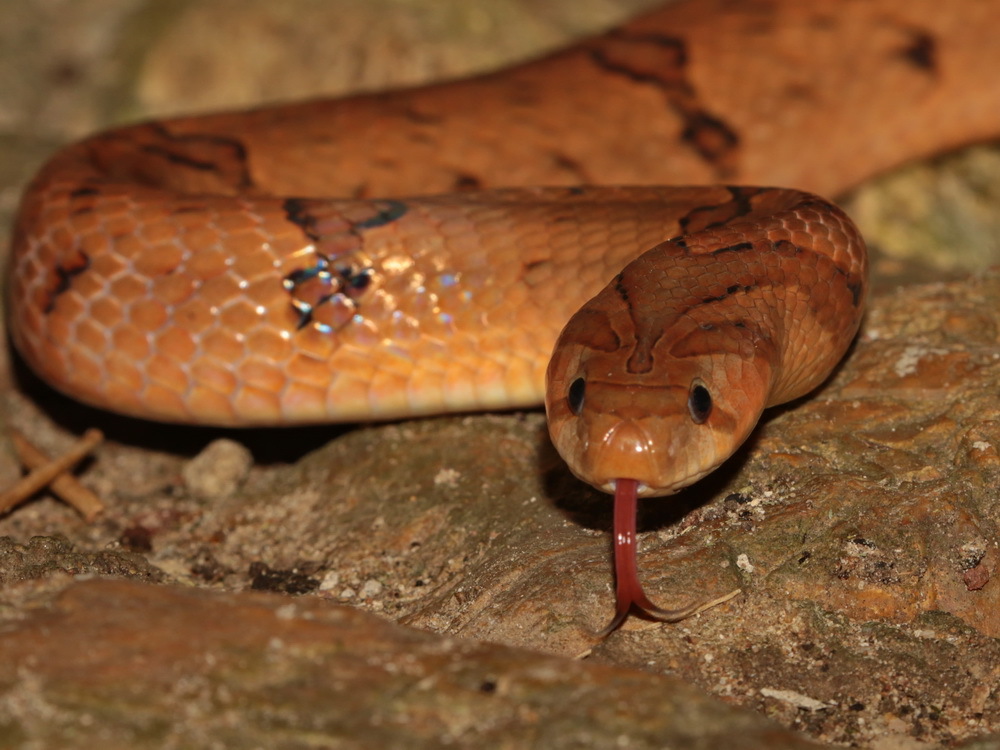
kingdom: Animalia
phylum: Chordata
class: Squamata
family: Colubridae
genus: Oligodon
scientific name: Oligodon fasciolatus
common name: Fasciolated kukri snake
